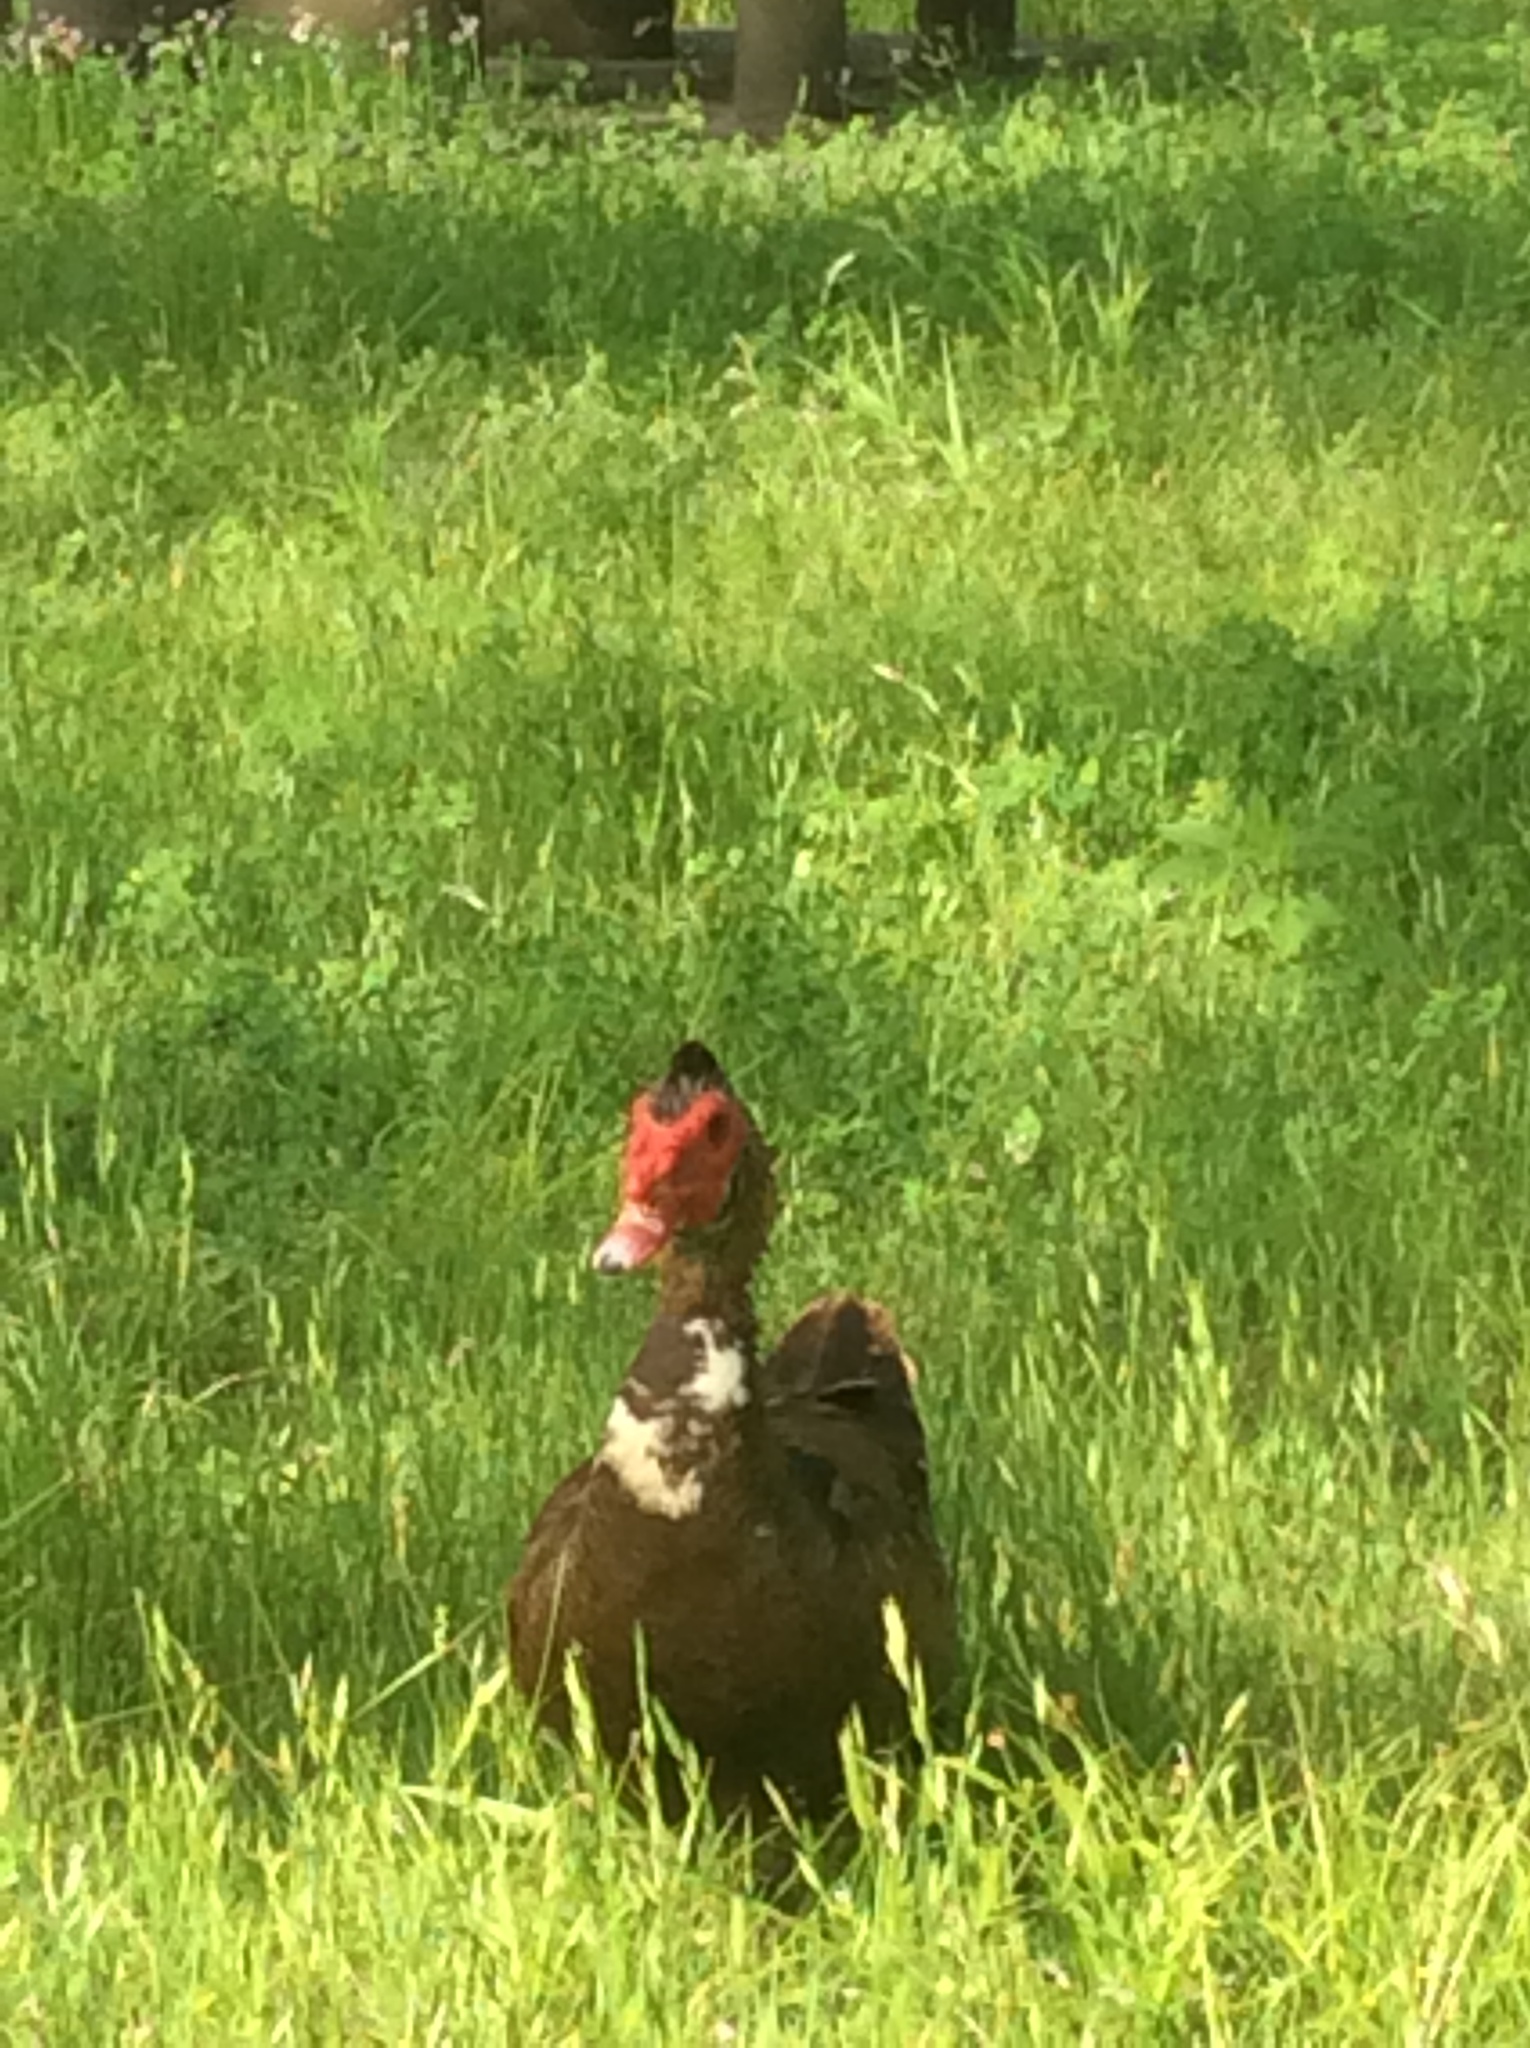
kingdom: Animalia
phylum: Chordata
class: Aves
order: Anseriformes
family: Anatidae
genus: Cairina
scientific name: Cairina moschata
